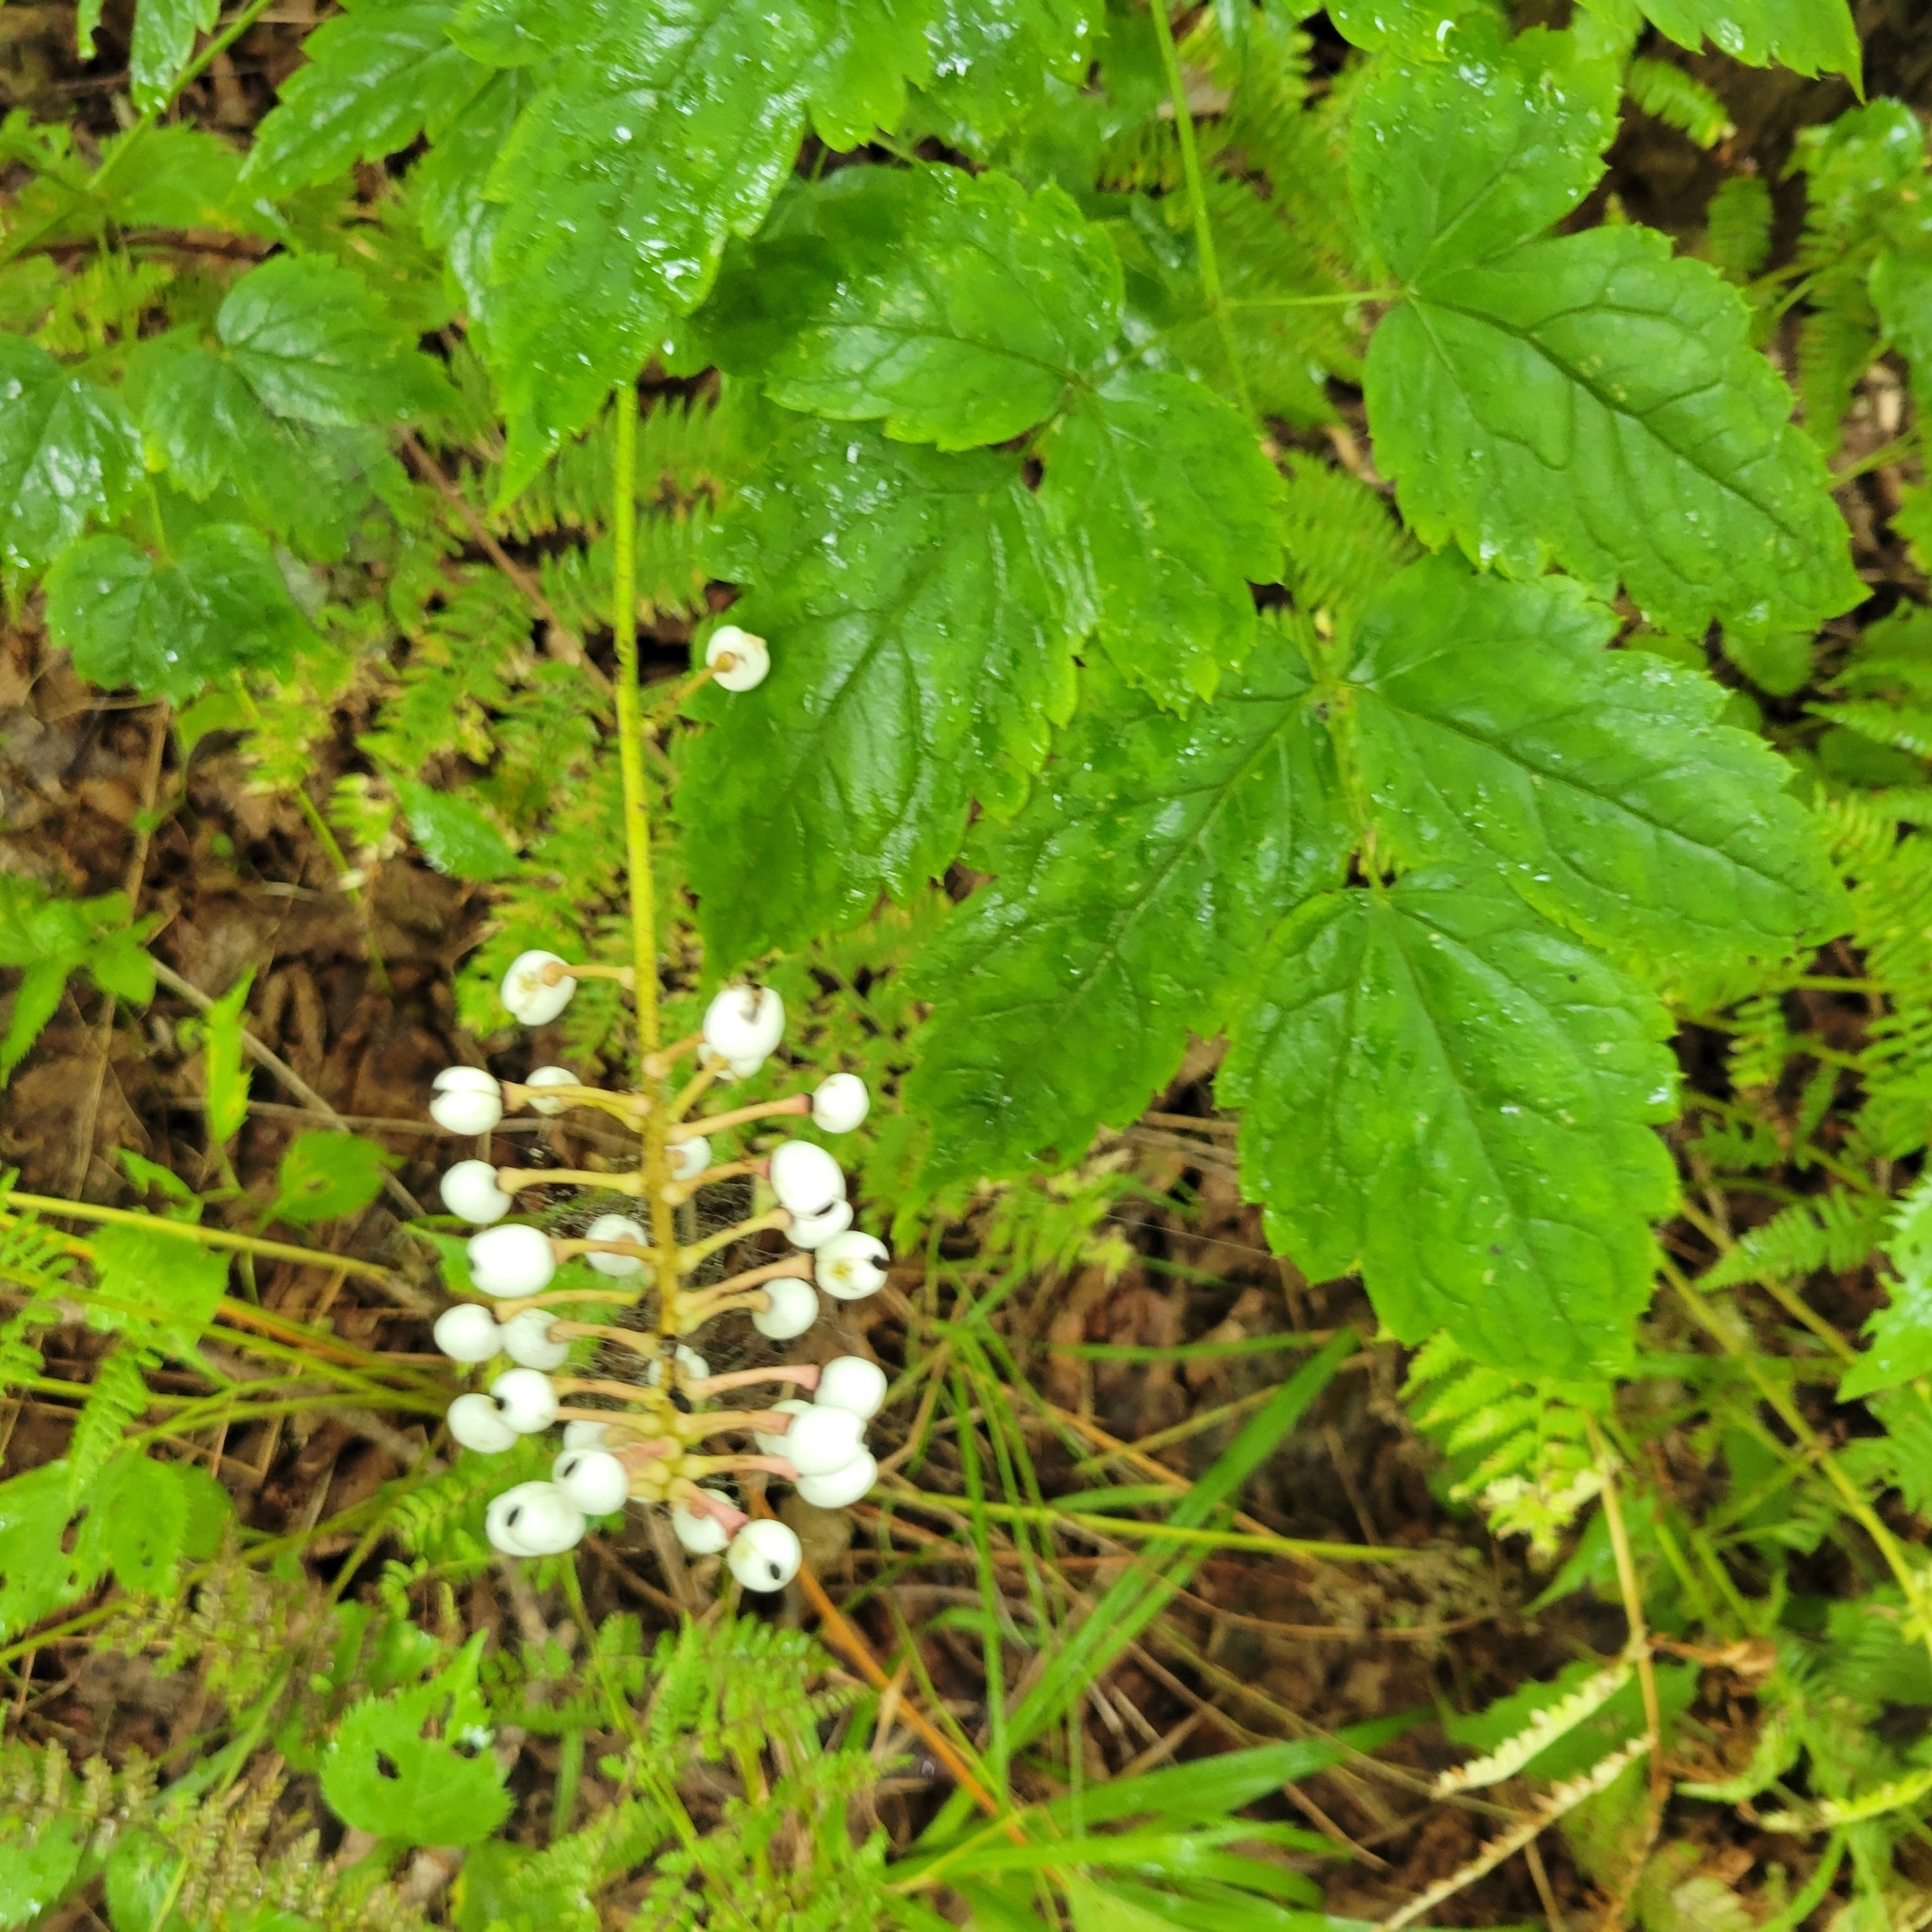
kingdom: Plantae
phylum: Tracheophyta
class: Magnoliopsida
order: Ranunculales
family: Ranunculaceae
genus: Actaea
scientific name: Actaea pachypoda
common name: Doll's-eyes
